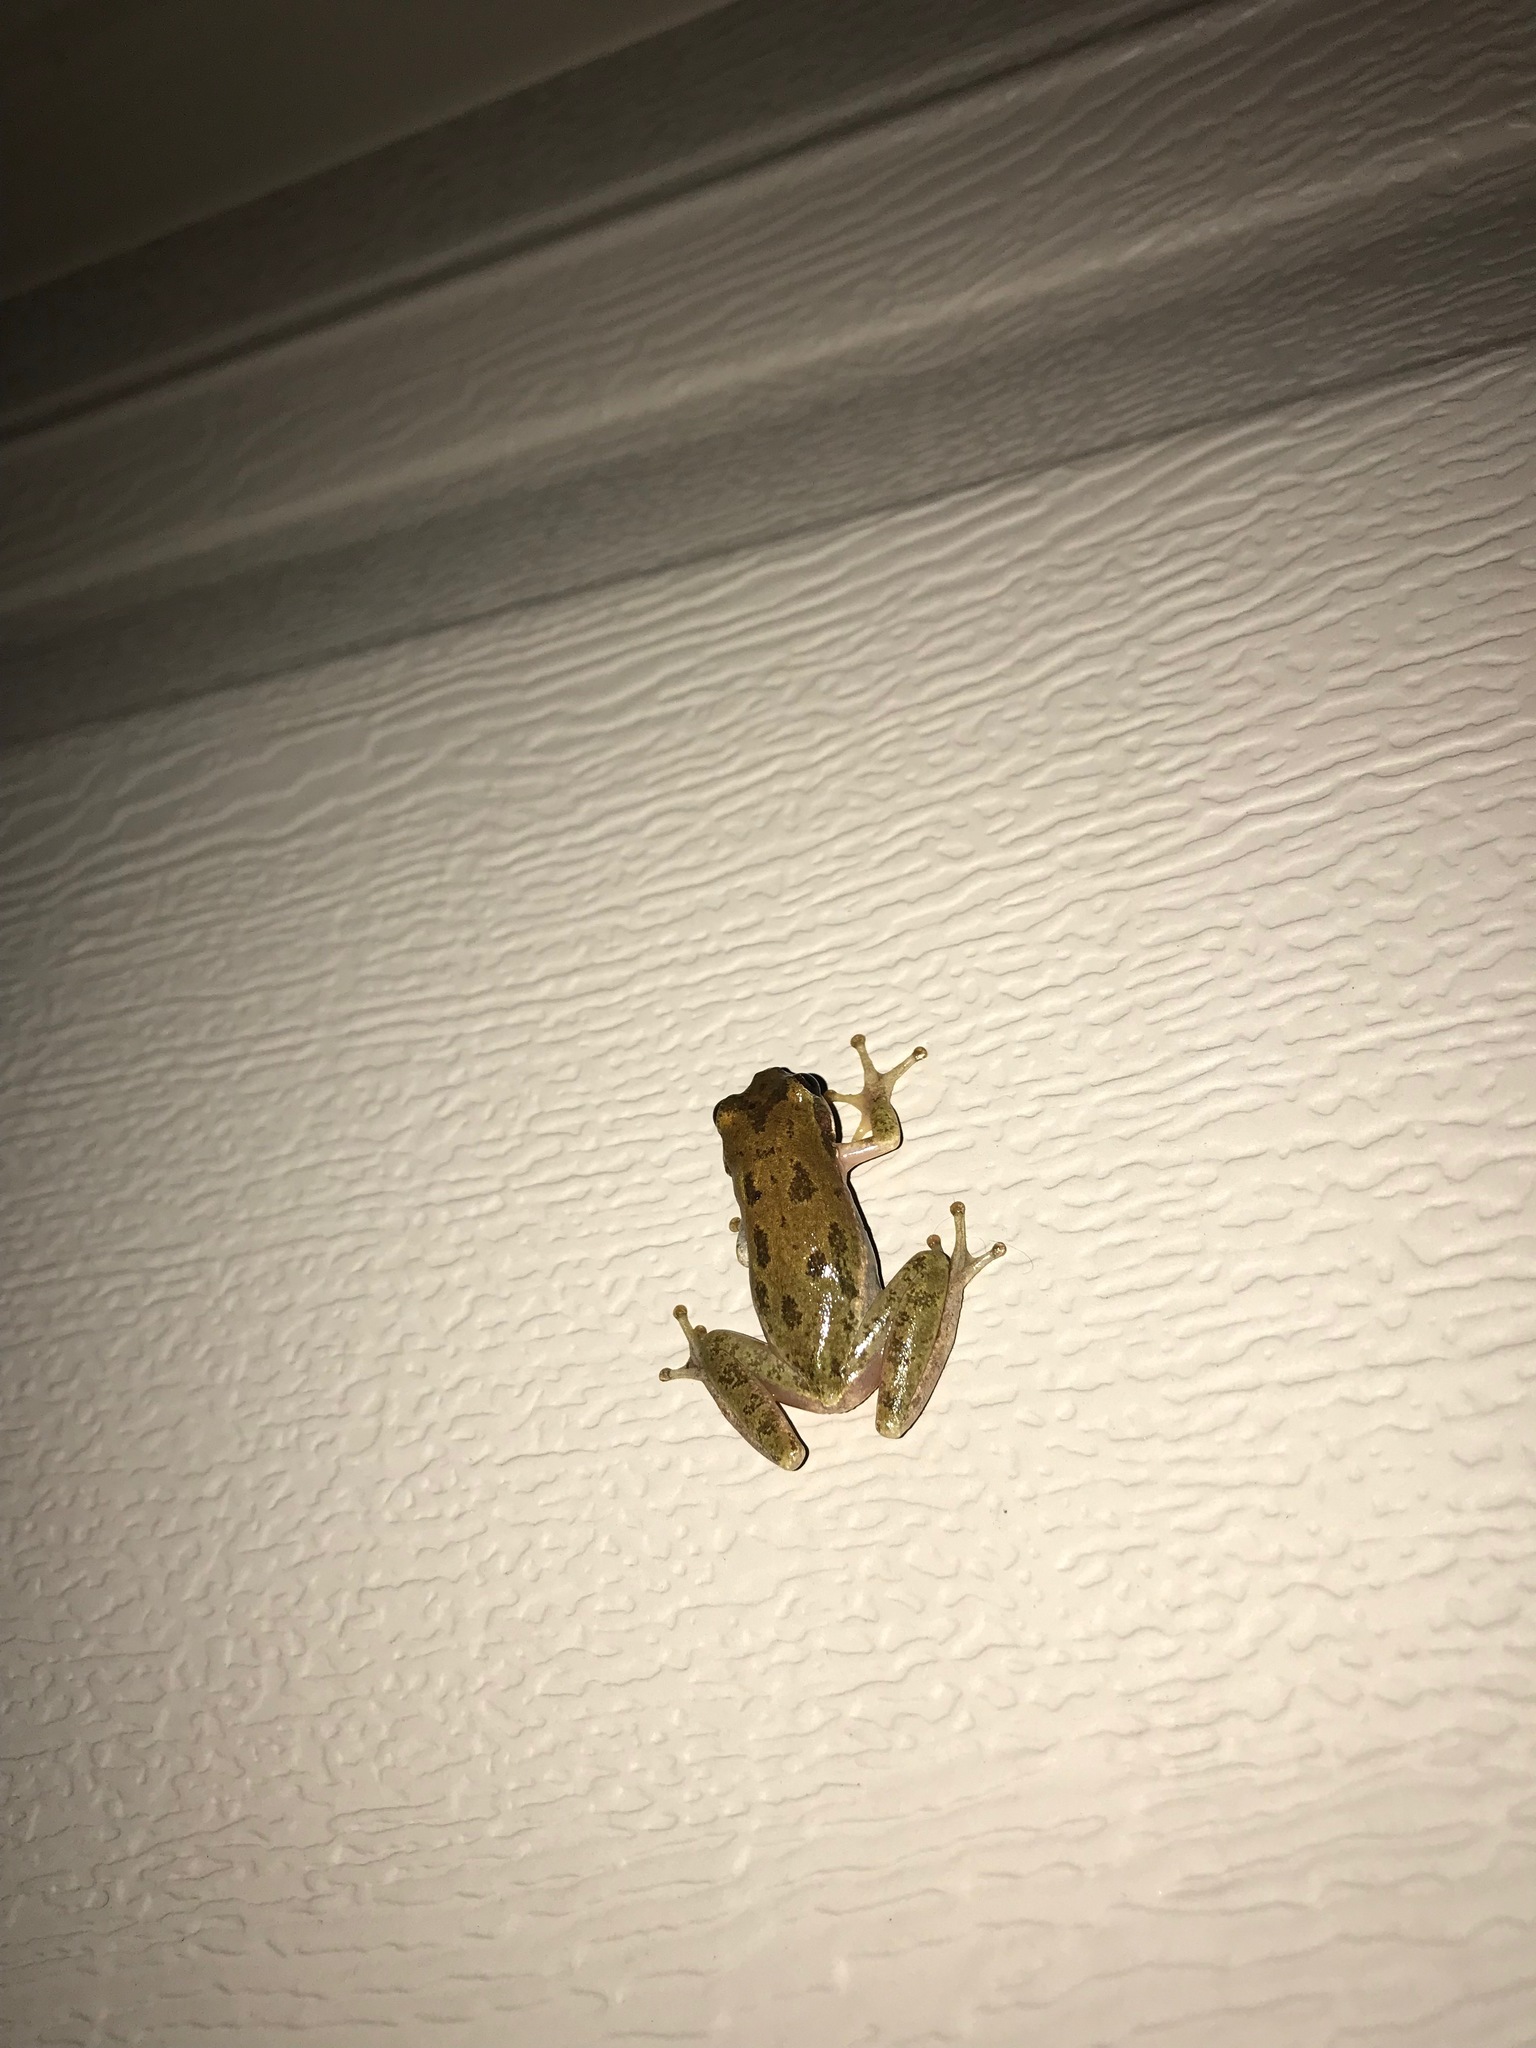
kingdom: Animalia
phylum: Chordata
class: Amphibia
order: Anura
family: Hylidae
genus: Dryophytes
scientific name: Dryophytes squirellus
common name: Squirrel treefrog
